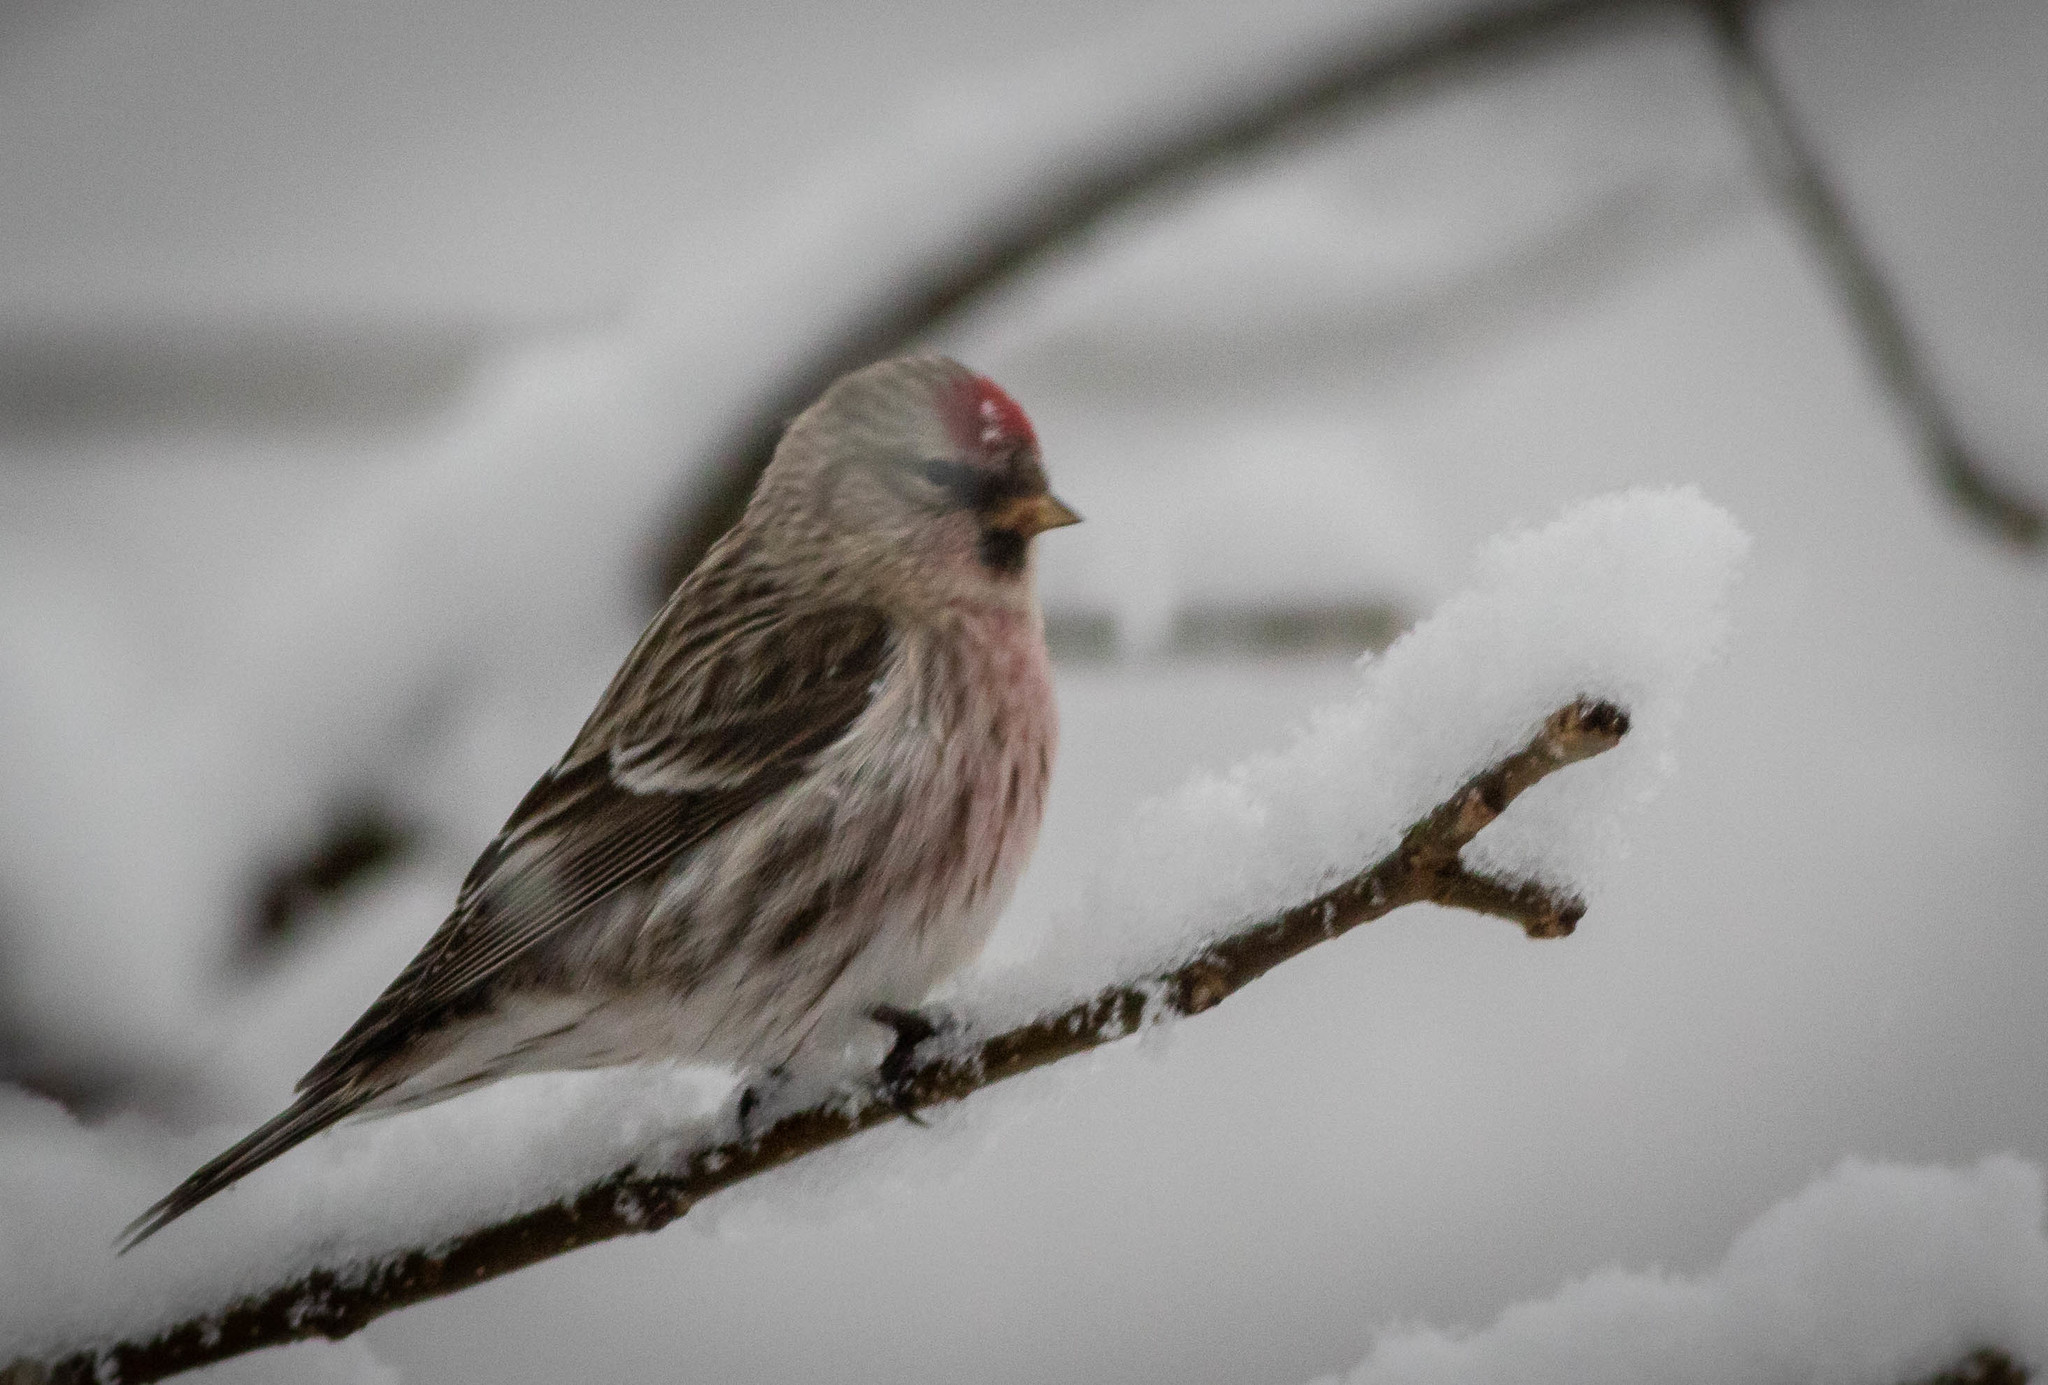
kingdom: Animalia
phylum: Chordata
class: Aves
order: Passeriformes
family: Fringillidae
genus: Acanthis
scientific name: Acanthis flammea
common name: Common redpoll
